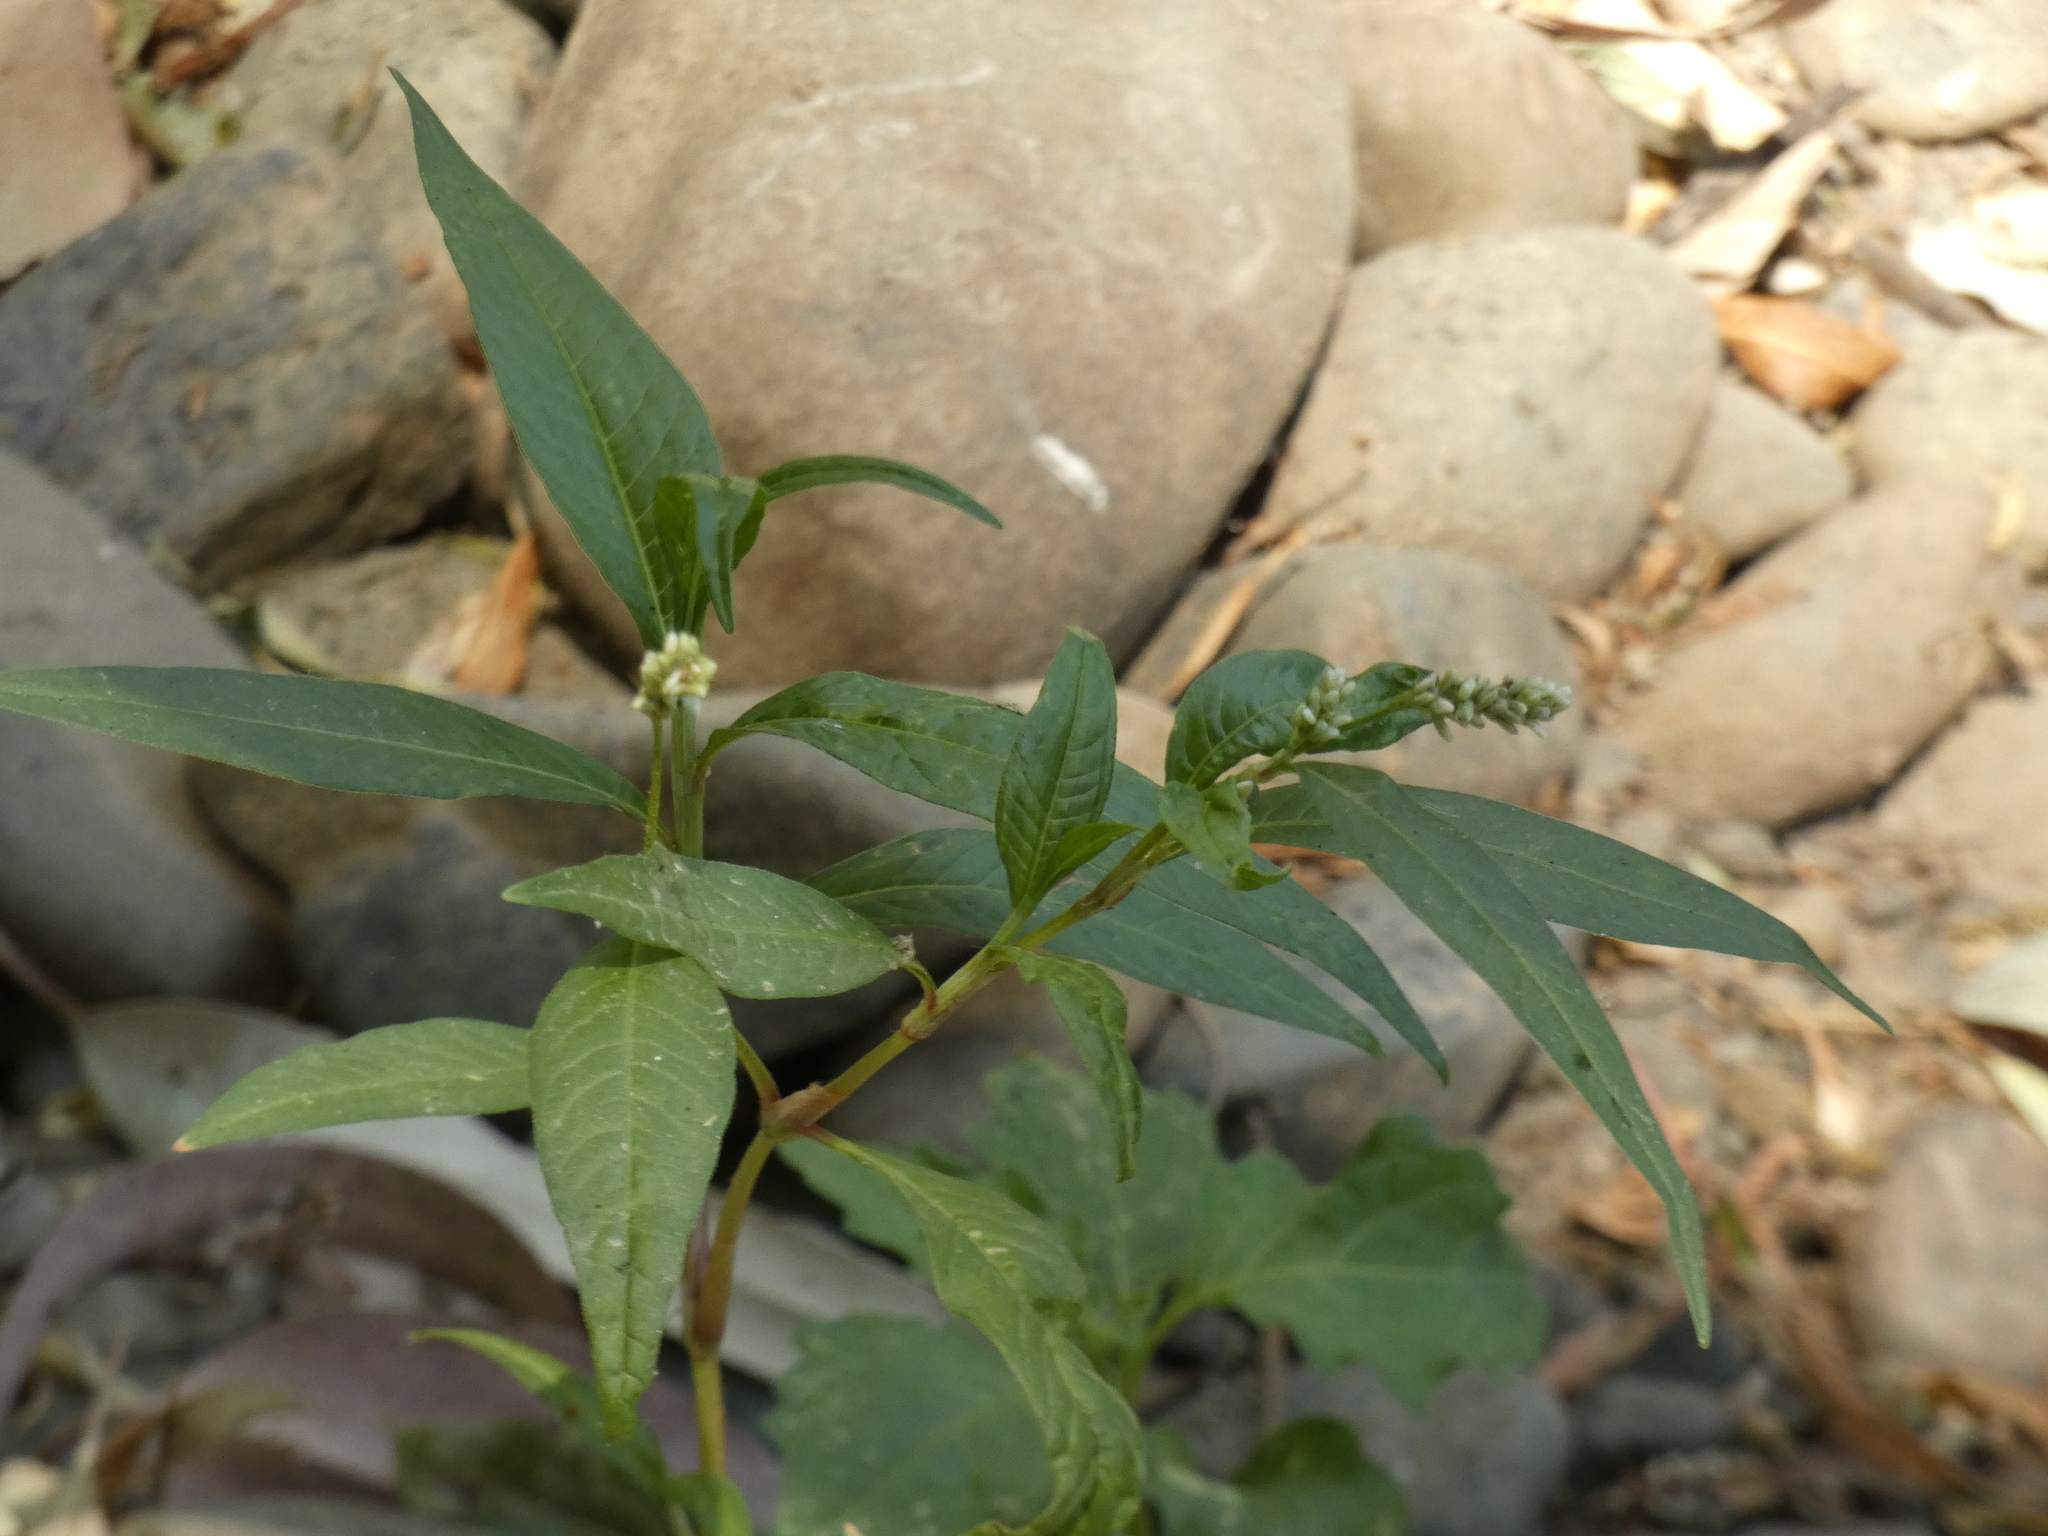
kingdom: Plantae
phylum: Tracheophyta
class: Magnoliopsida
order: Caryophyllales
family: Polygonaceae
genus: Persicaria
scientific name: Persicaria maculosa
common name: Redshank
